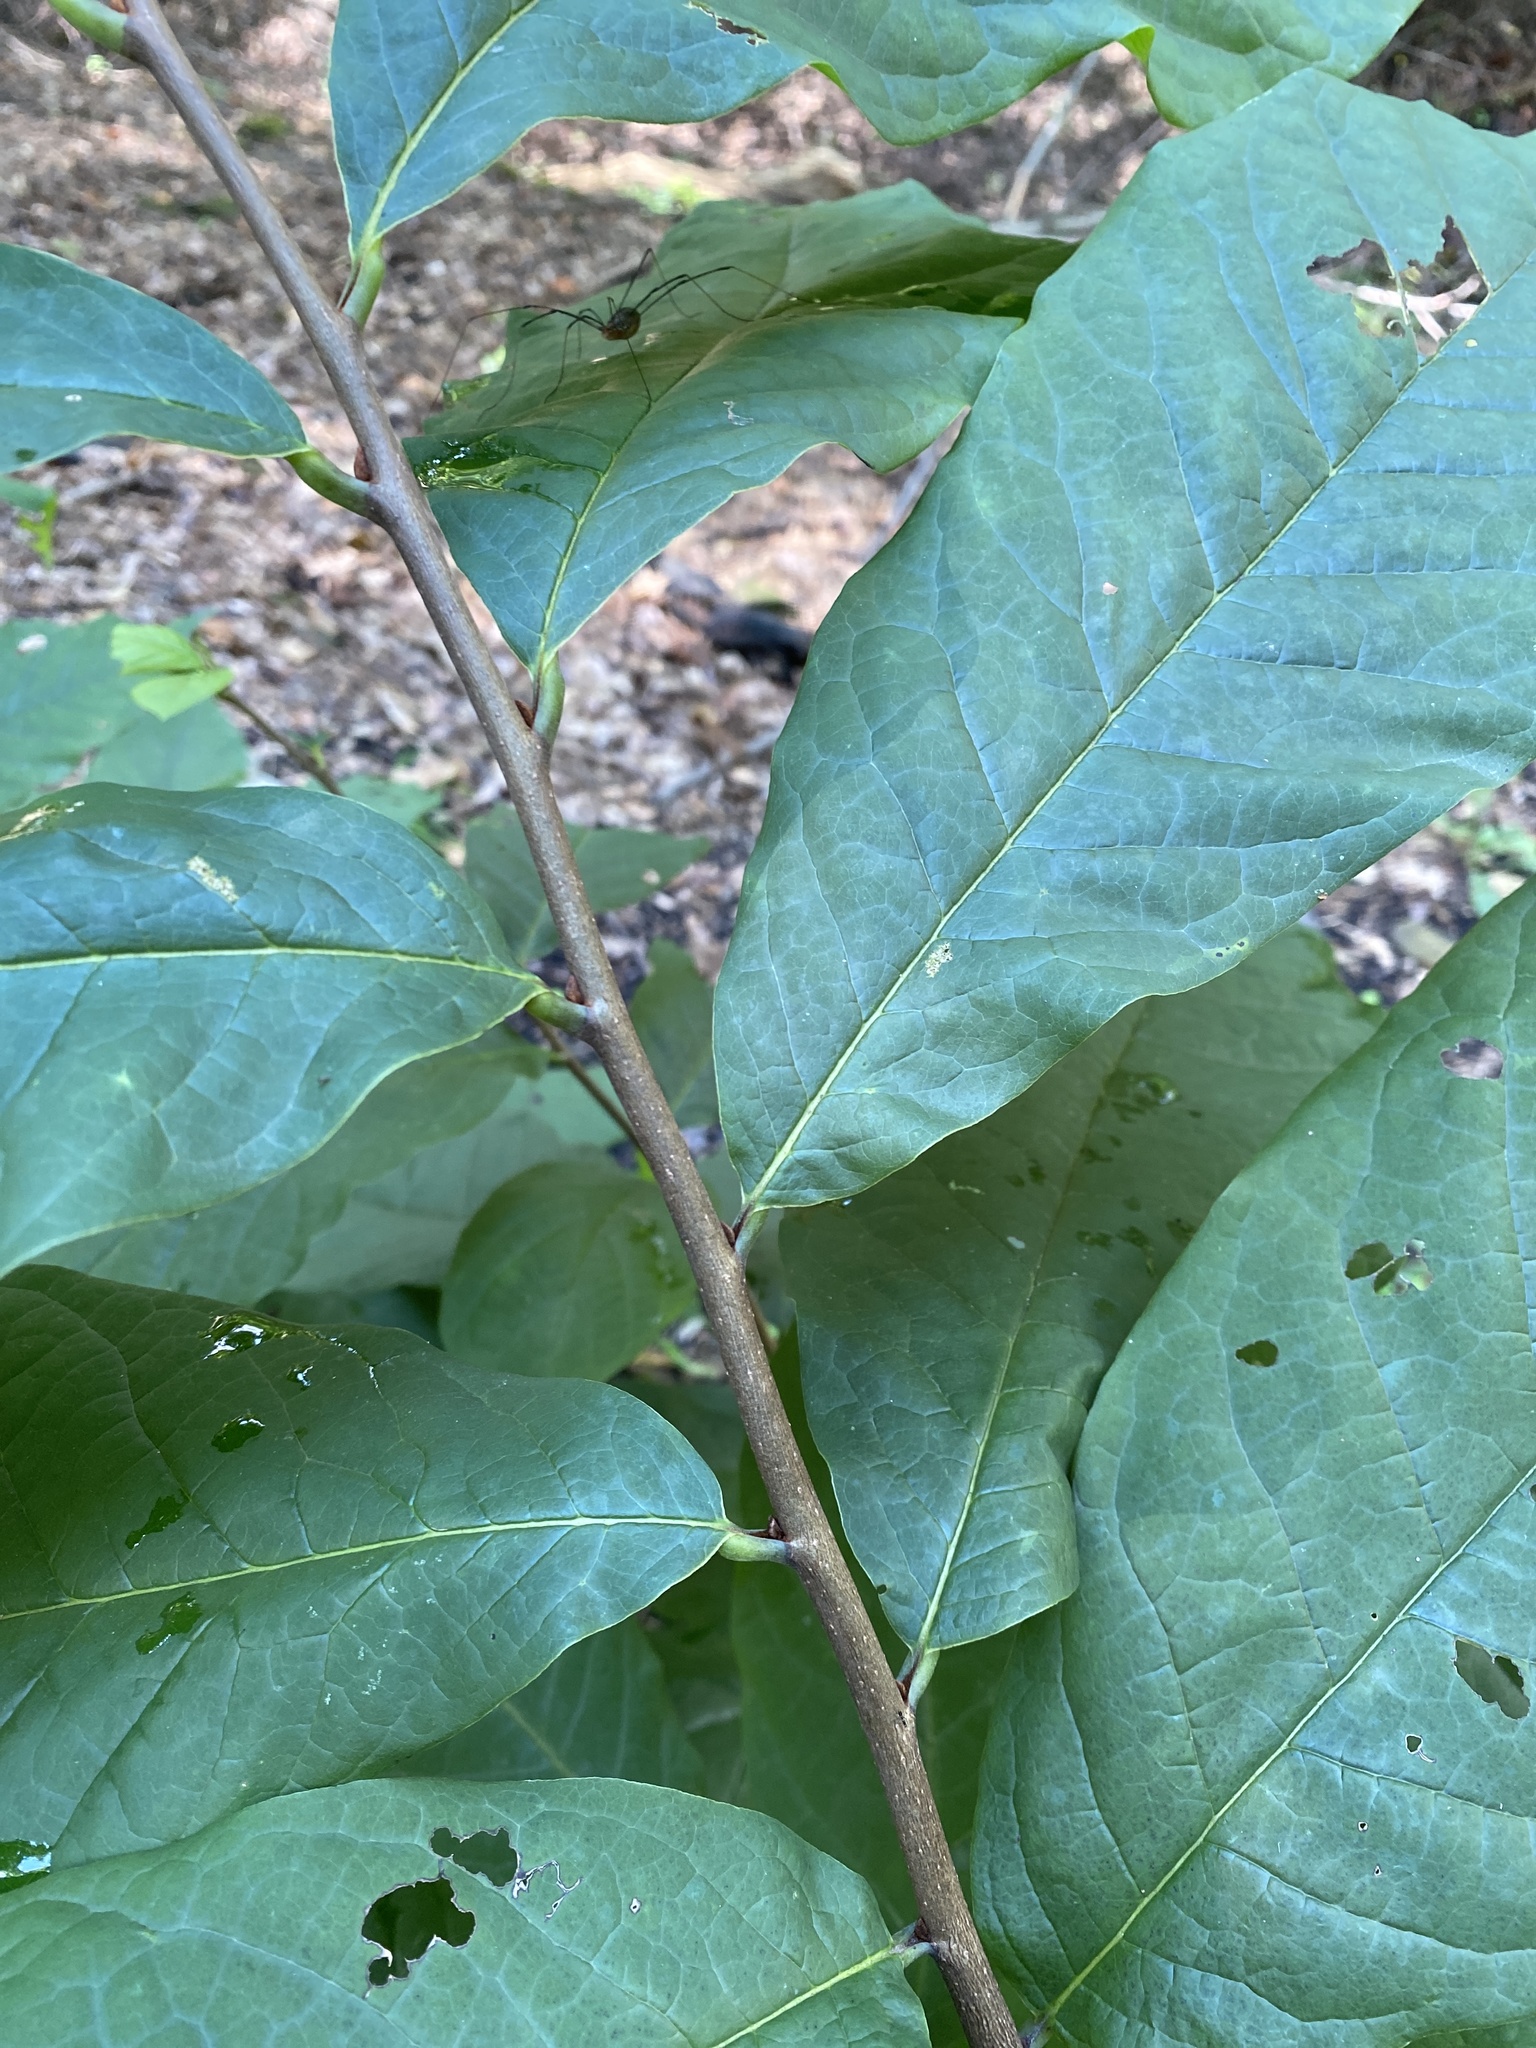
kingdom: Plantae
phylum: Tracheophyta
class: Magnoliopsida
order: Magnoliales
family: Annonaceae
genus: Asimina
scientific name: Asimina triloba
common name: Dog-banana
